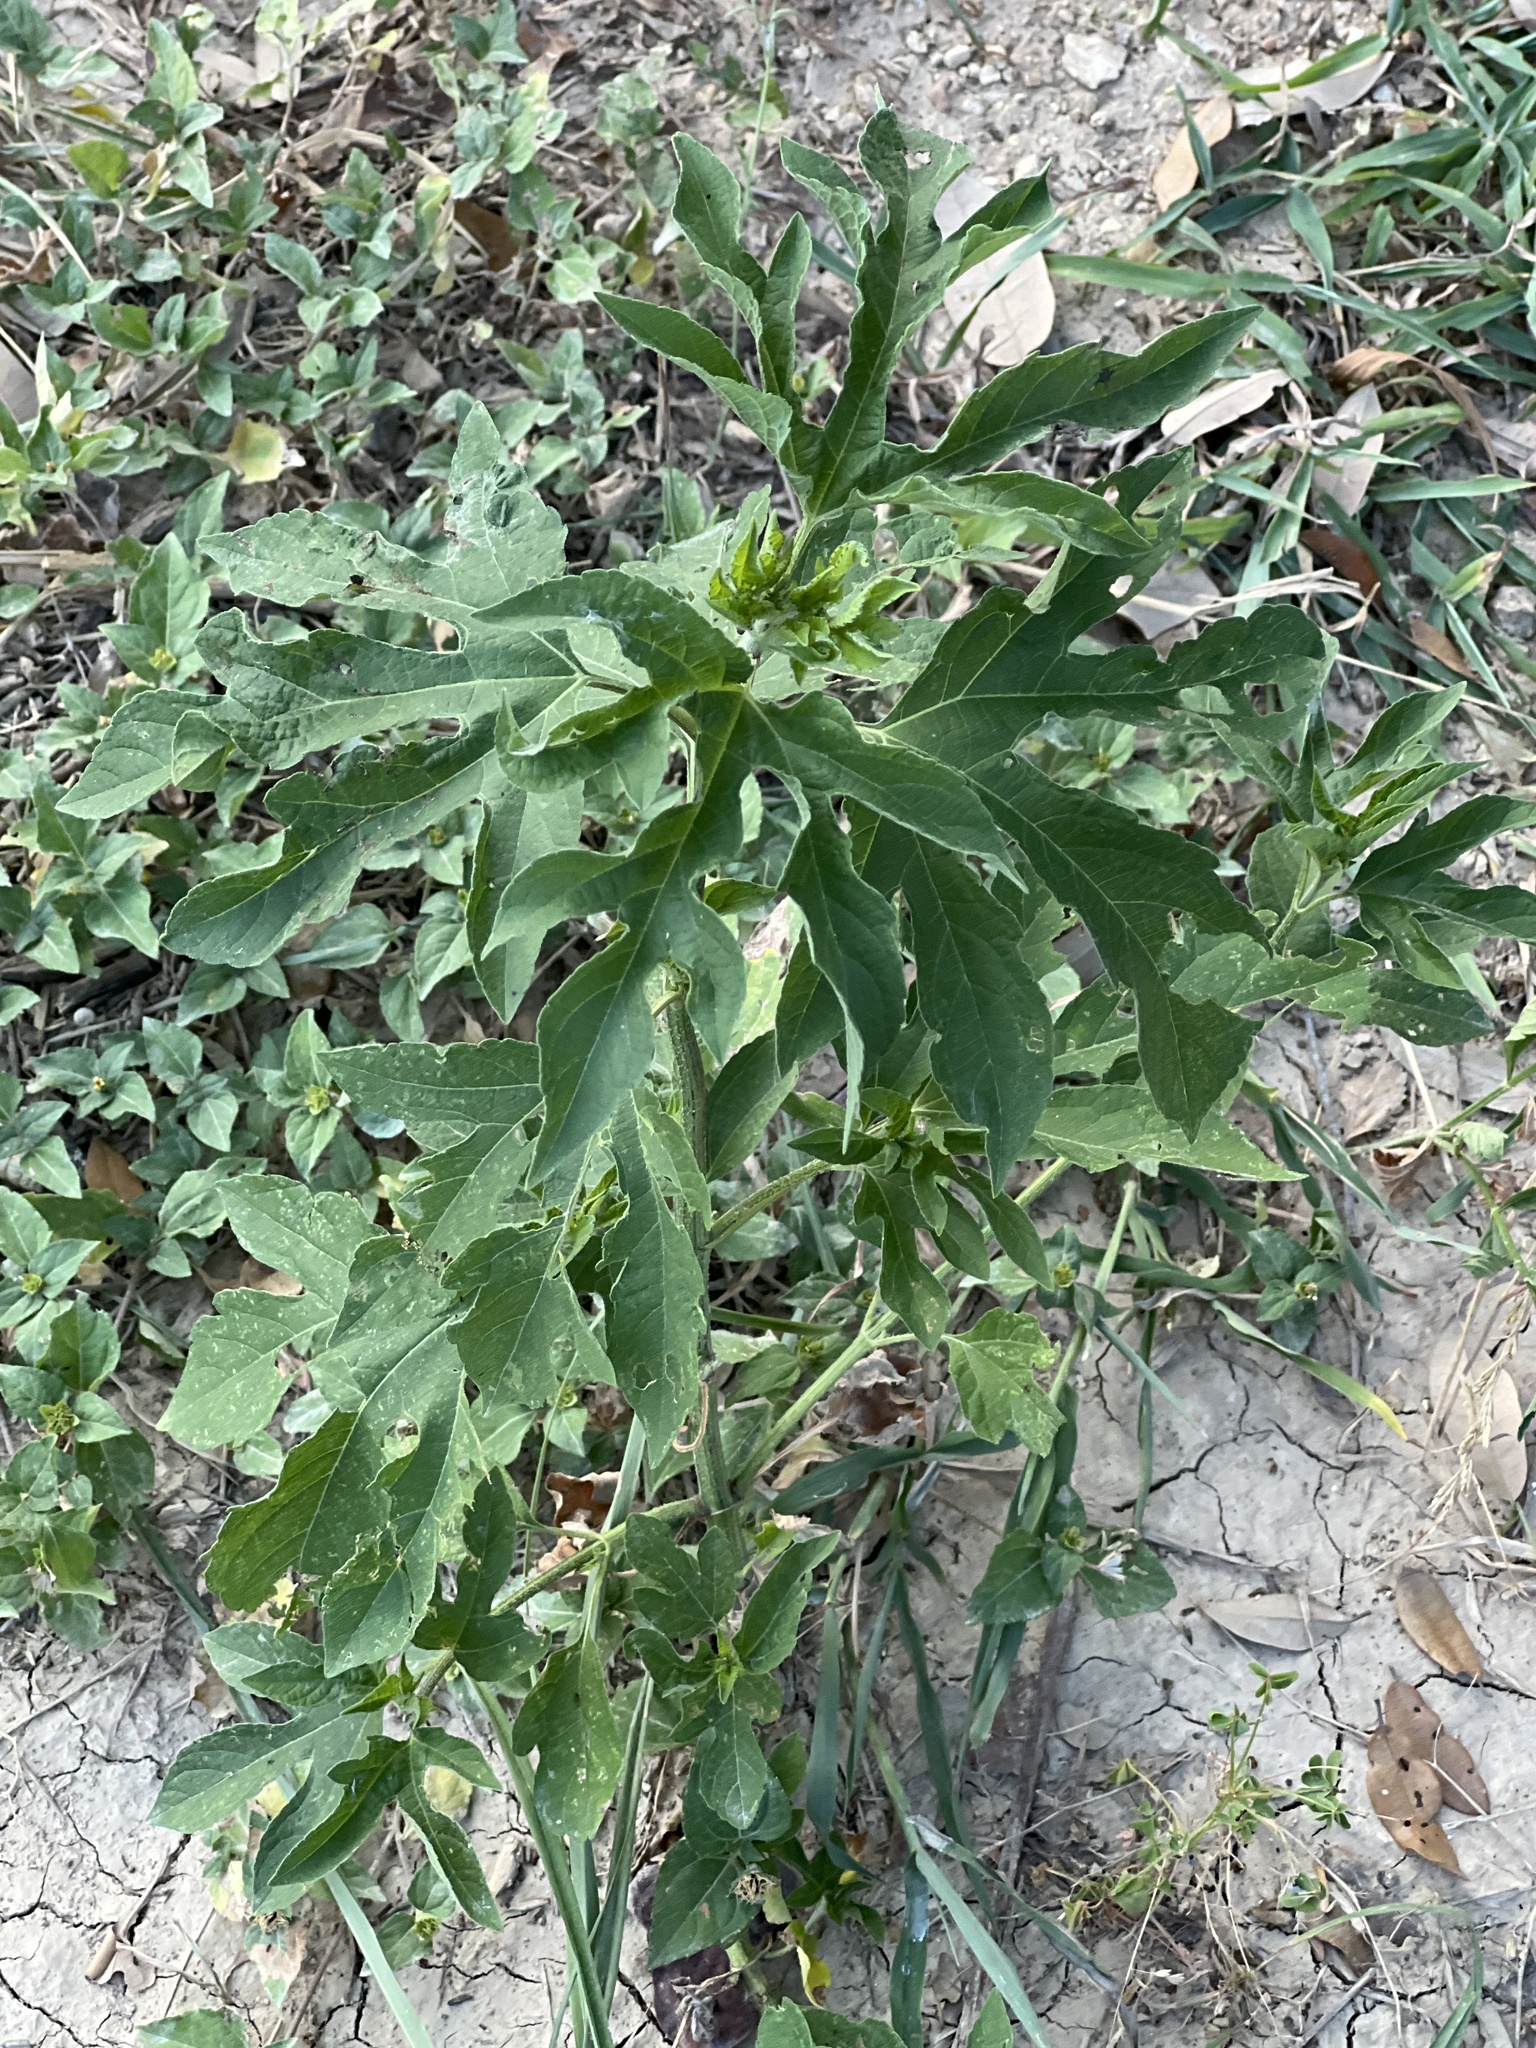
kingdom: Plantae
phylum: Tracheophyta
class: Magnoliopsida
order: Asterales
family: Asteraceae
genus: Ambrosia
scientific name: Ambrosia trifida
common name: Giant ragweed
